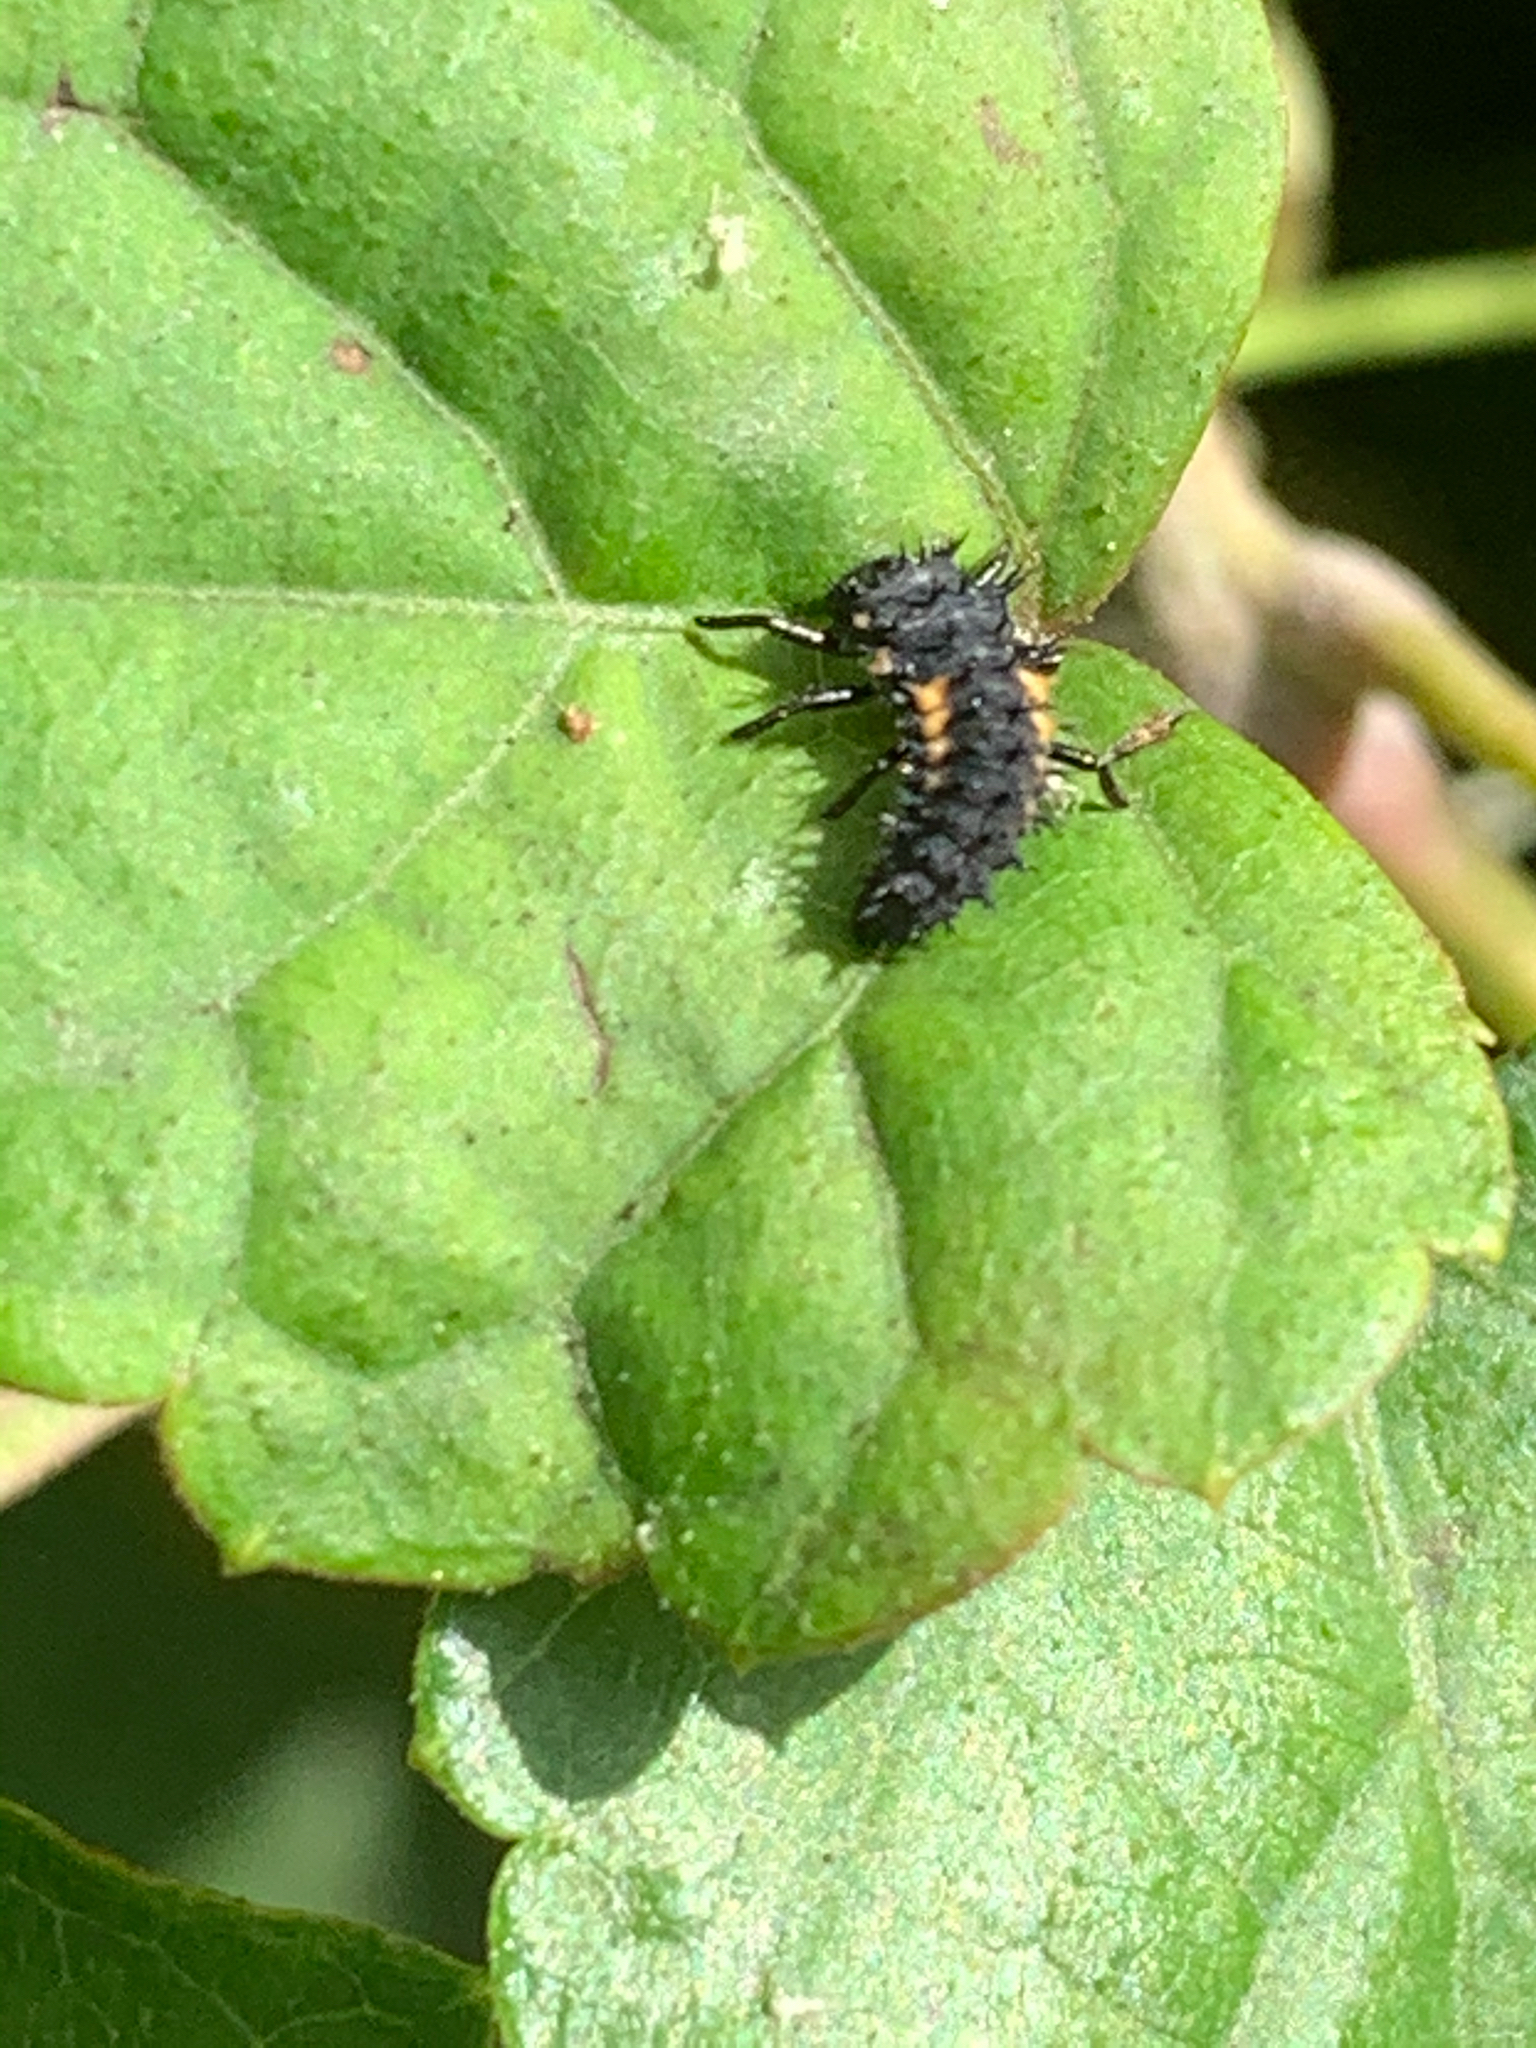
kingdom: Animalia
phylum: Arthropoda
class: Insecta
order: Coleoptera
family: Coccinellidae
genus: Harmonia
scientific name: Harmonia axyridis
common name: Harlequin ladybird
